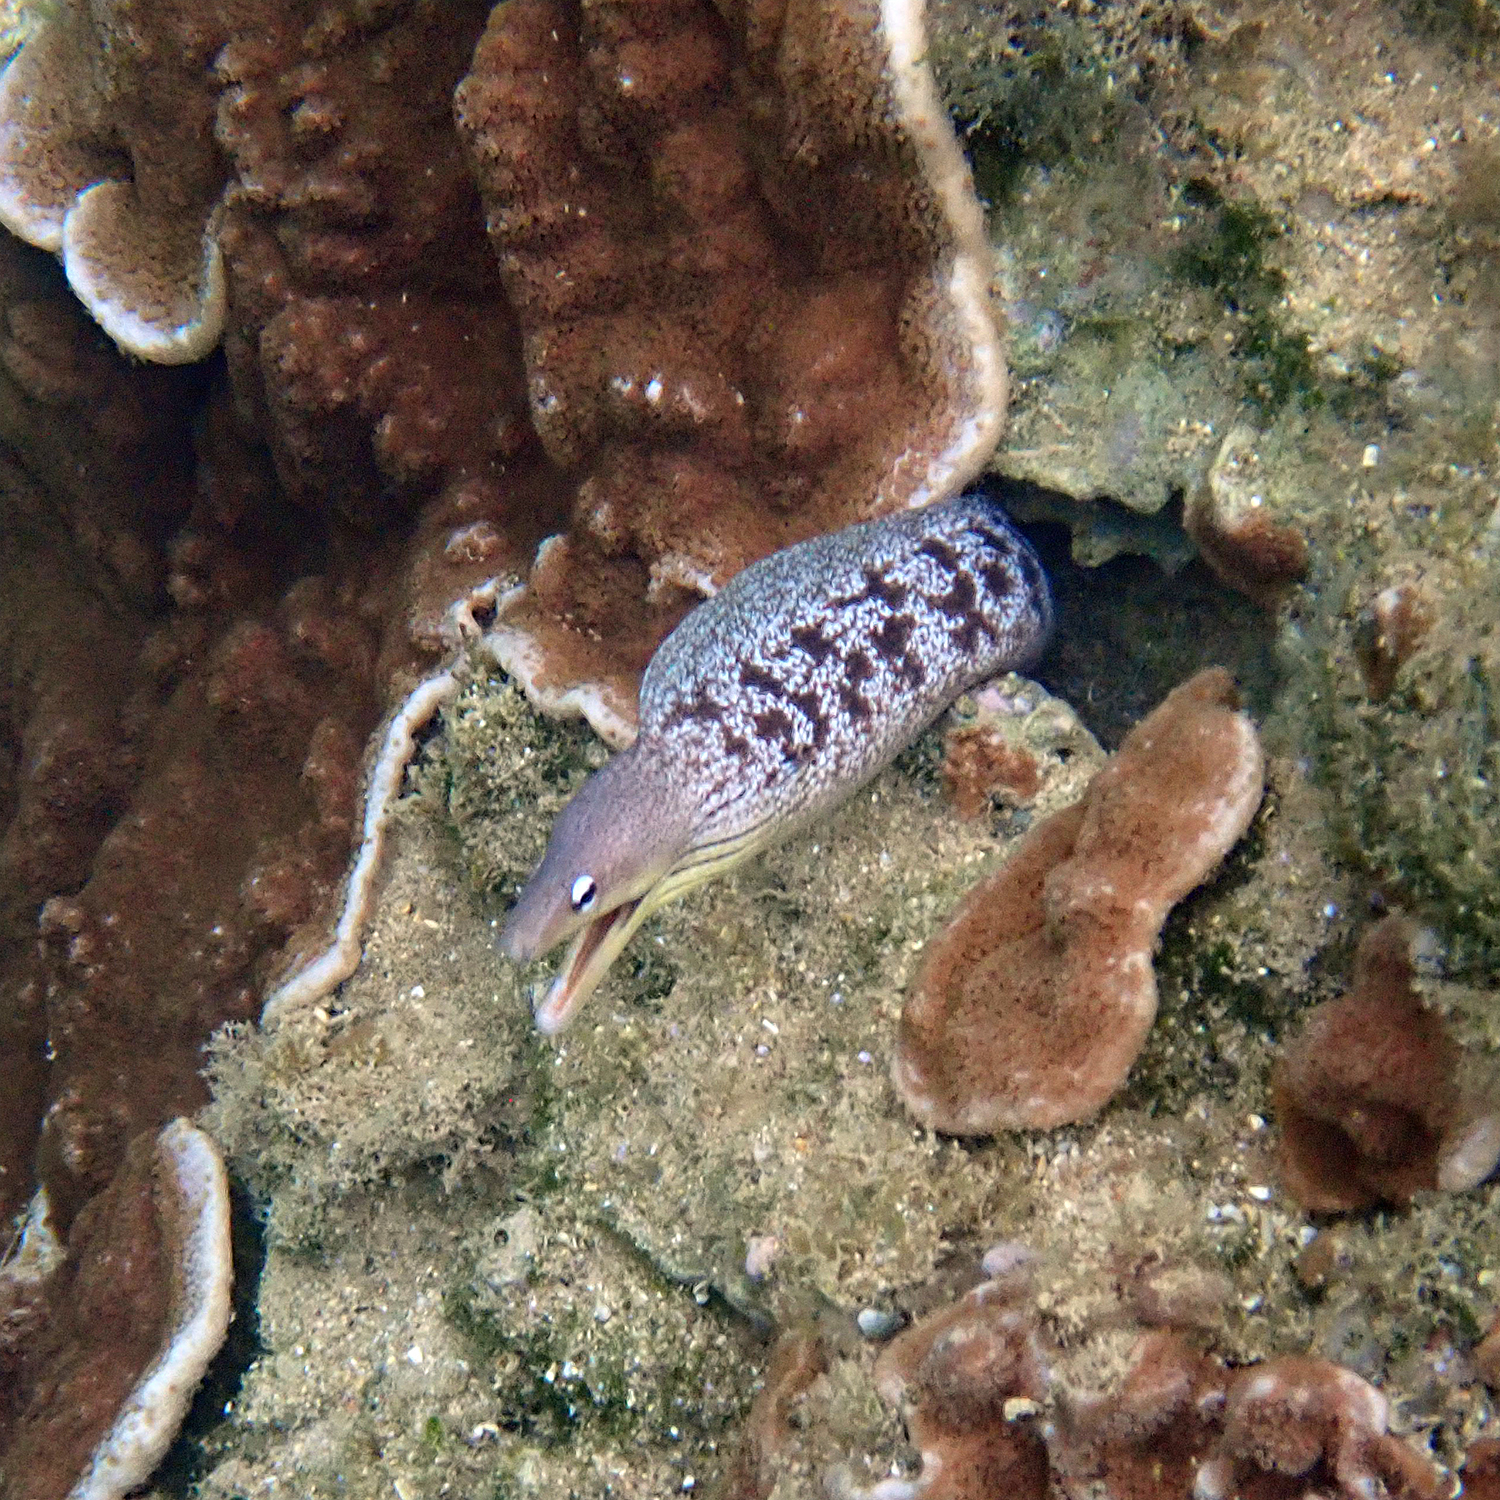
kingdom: Animalia
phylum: Chordata
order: Anguilliformes
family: Muraenidae
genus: Gymnothorax
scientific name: Gymnothorax nubilus
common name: Grey moray
